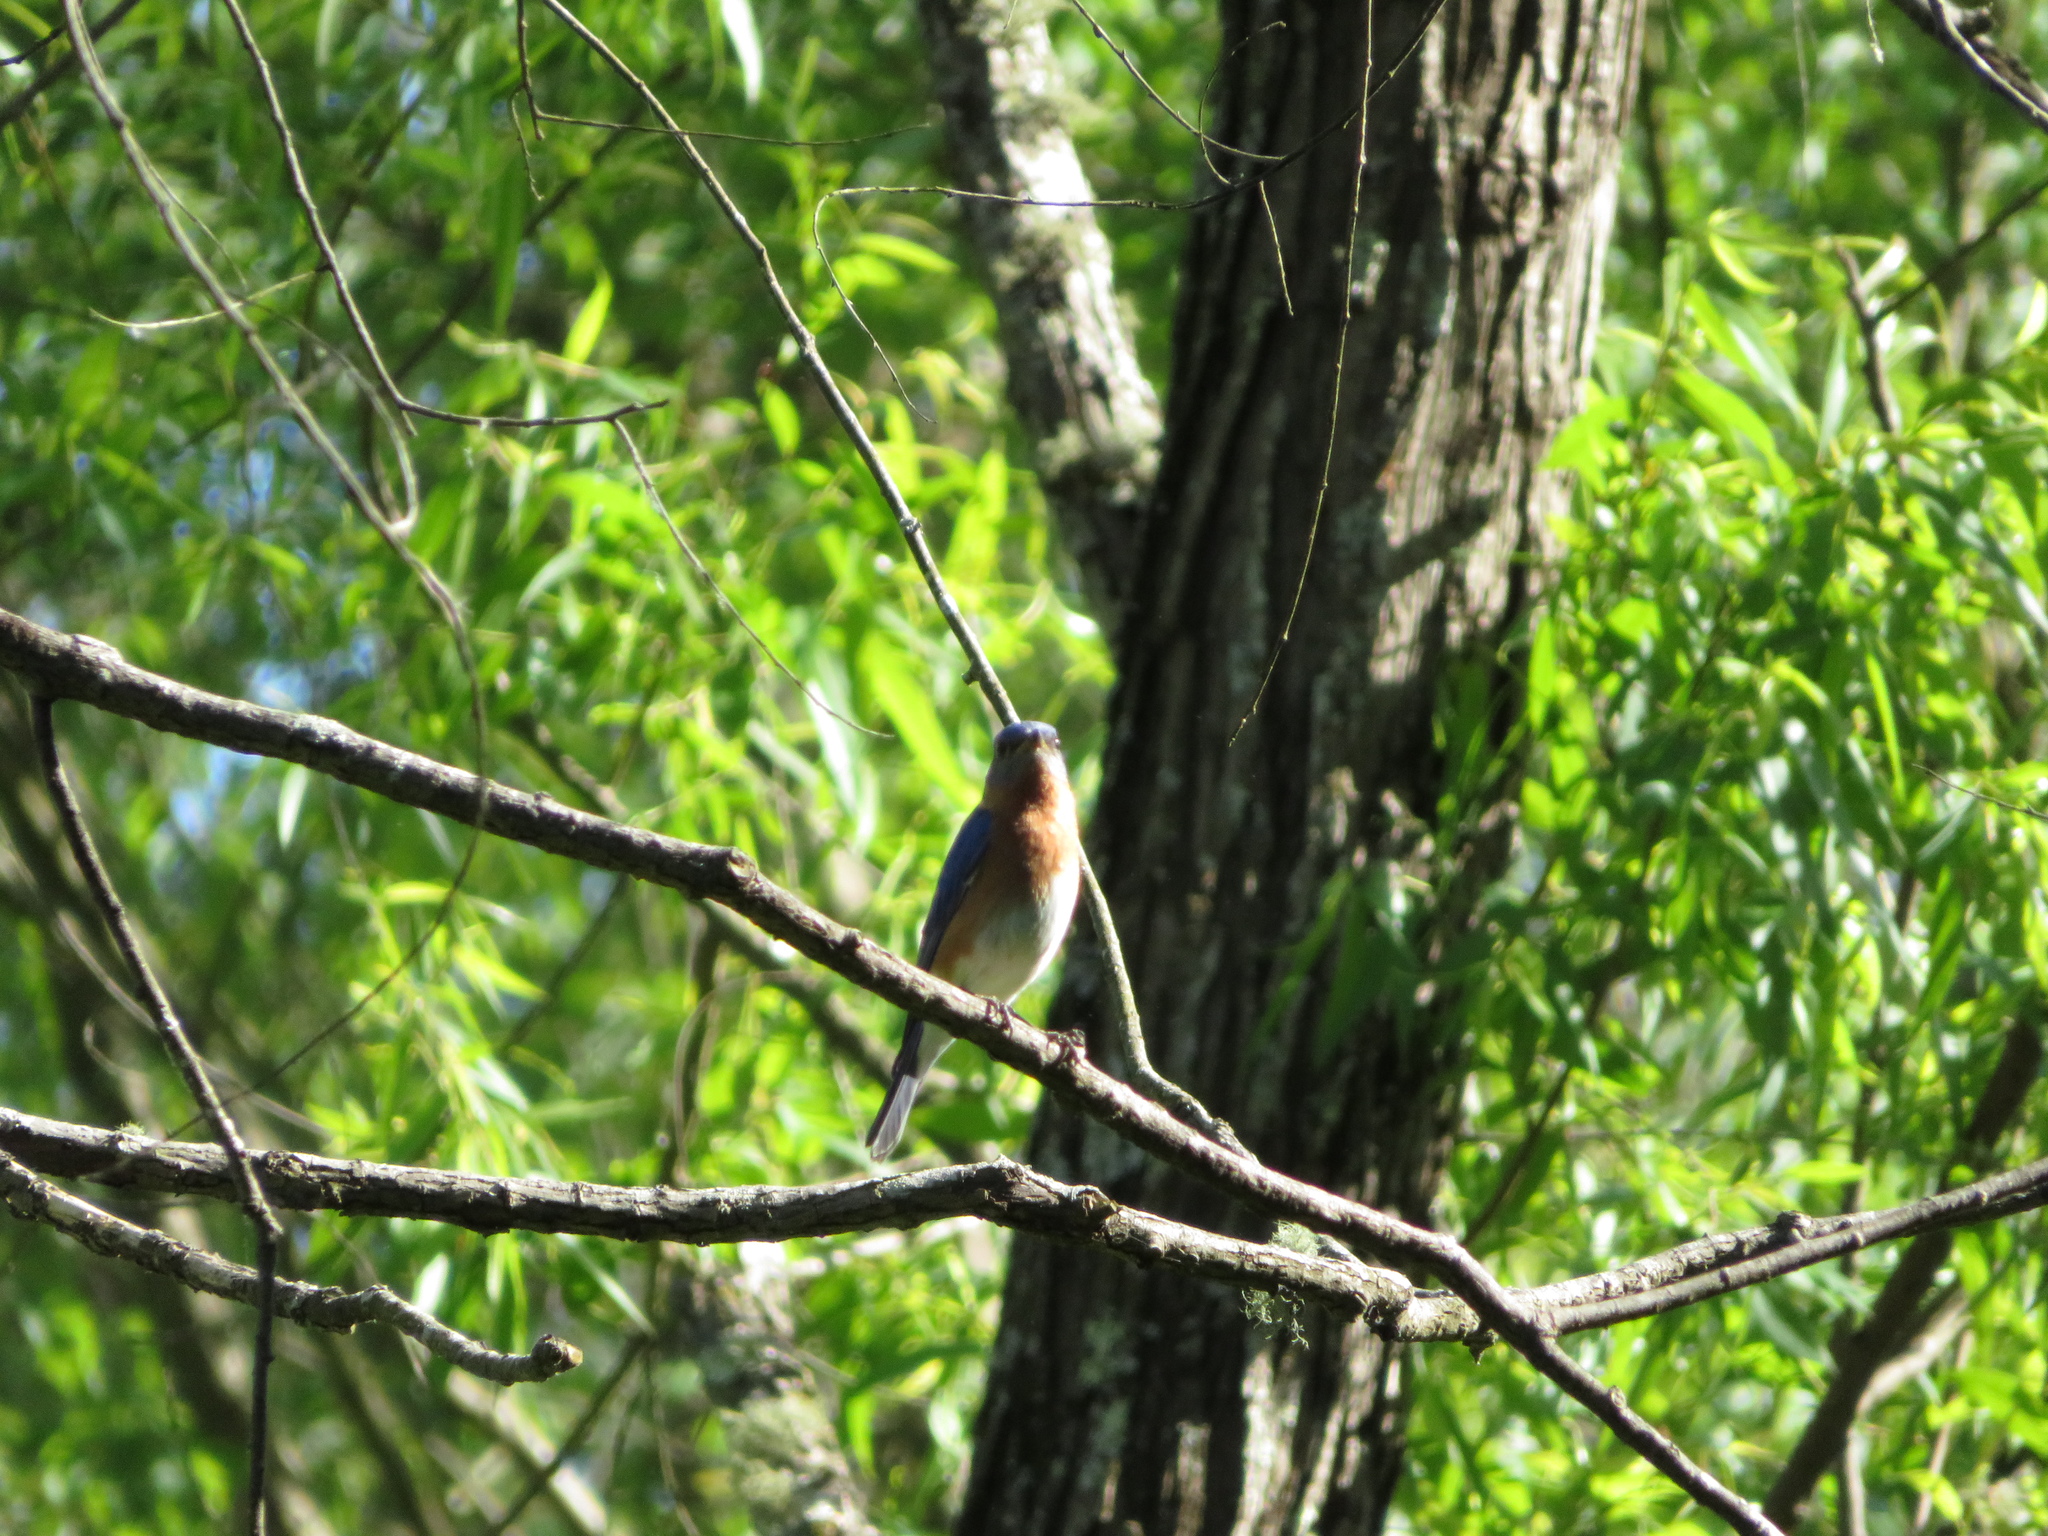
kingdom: Animalia
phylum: Chordata
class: Aves
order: Passeriformes
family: Turdidae
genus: Sialia
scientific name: Sialia sialis
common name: Eastern bluebird
